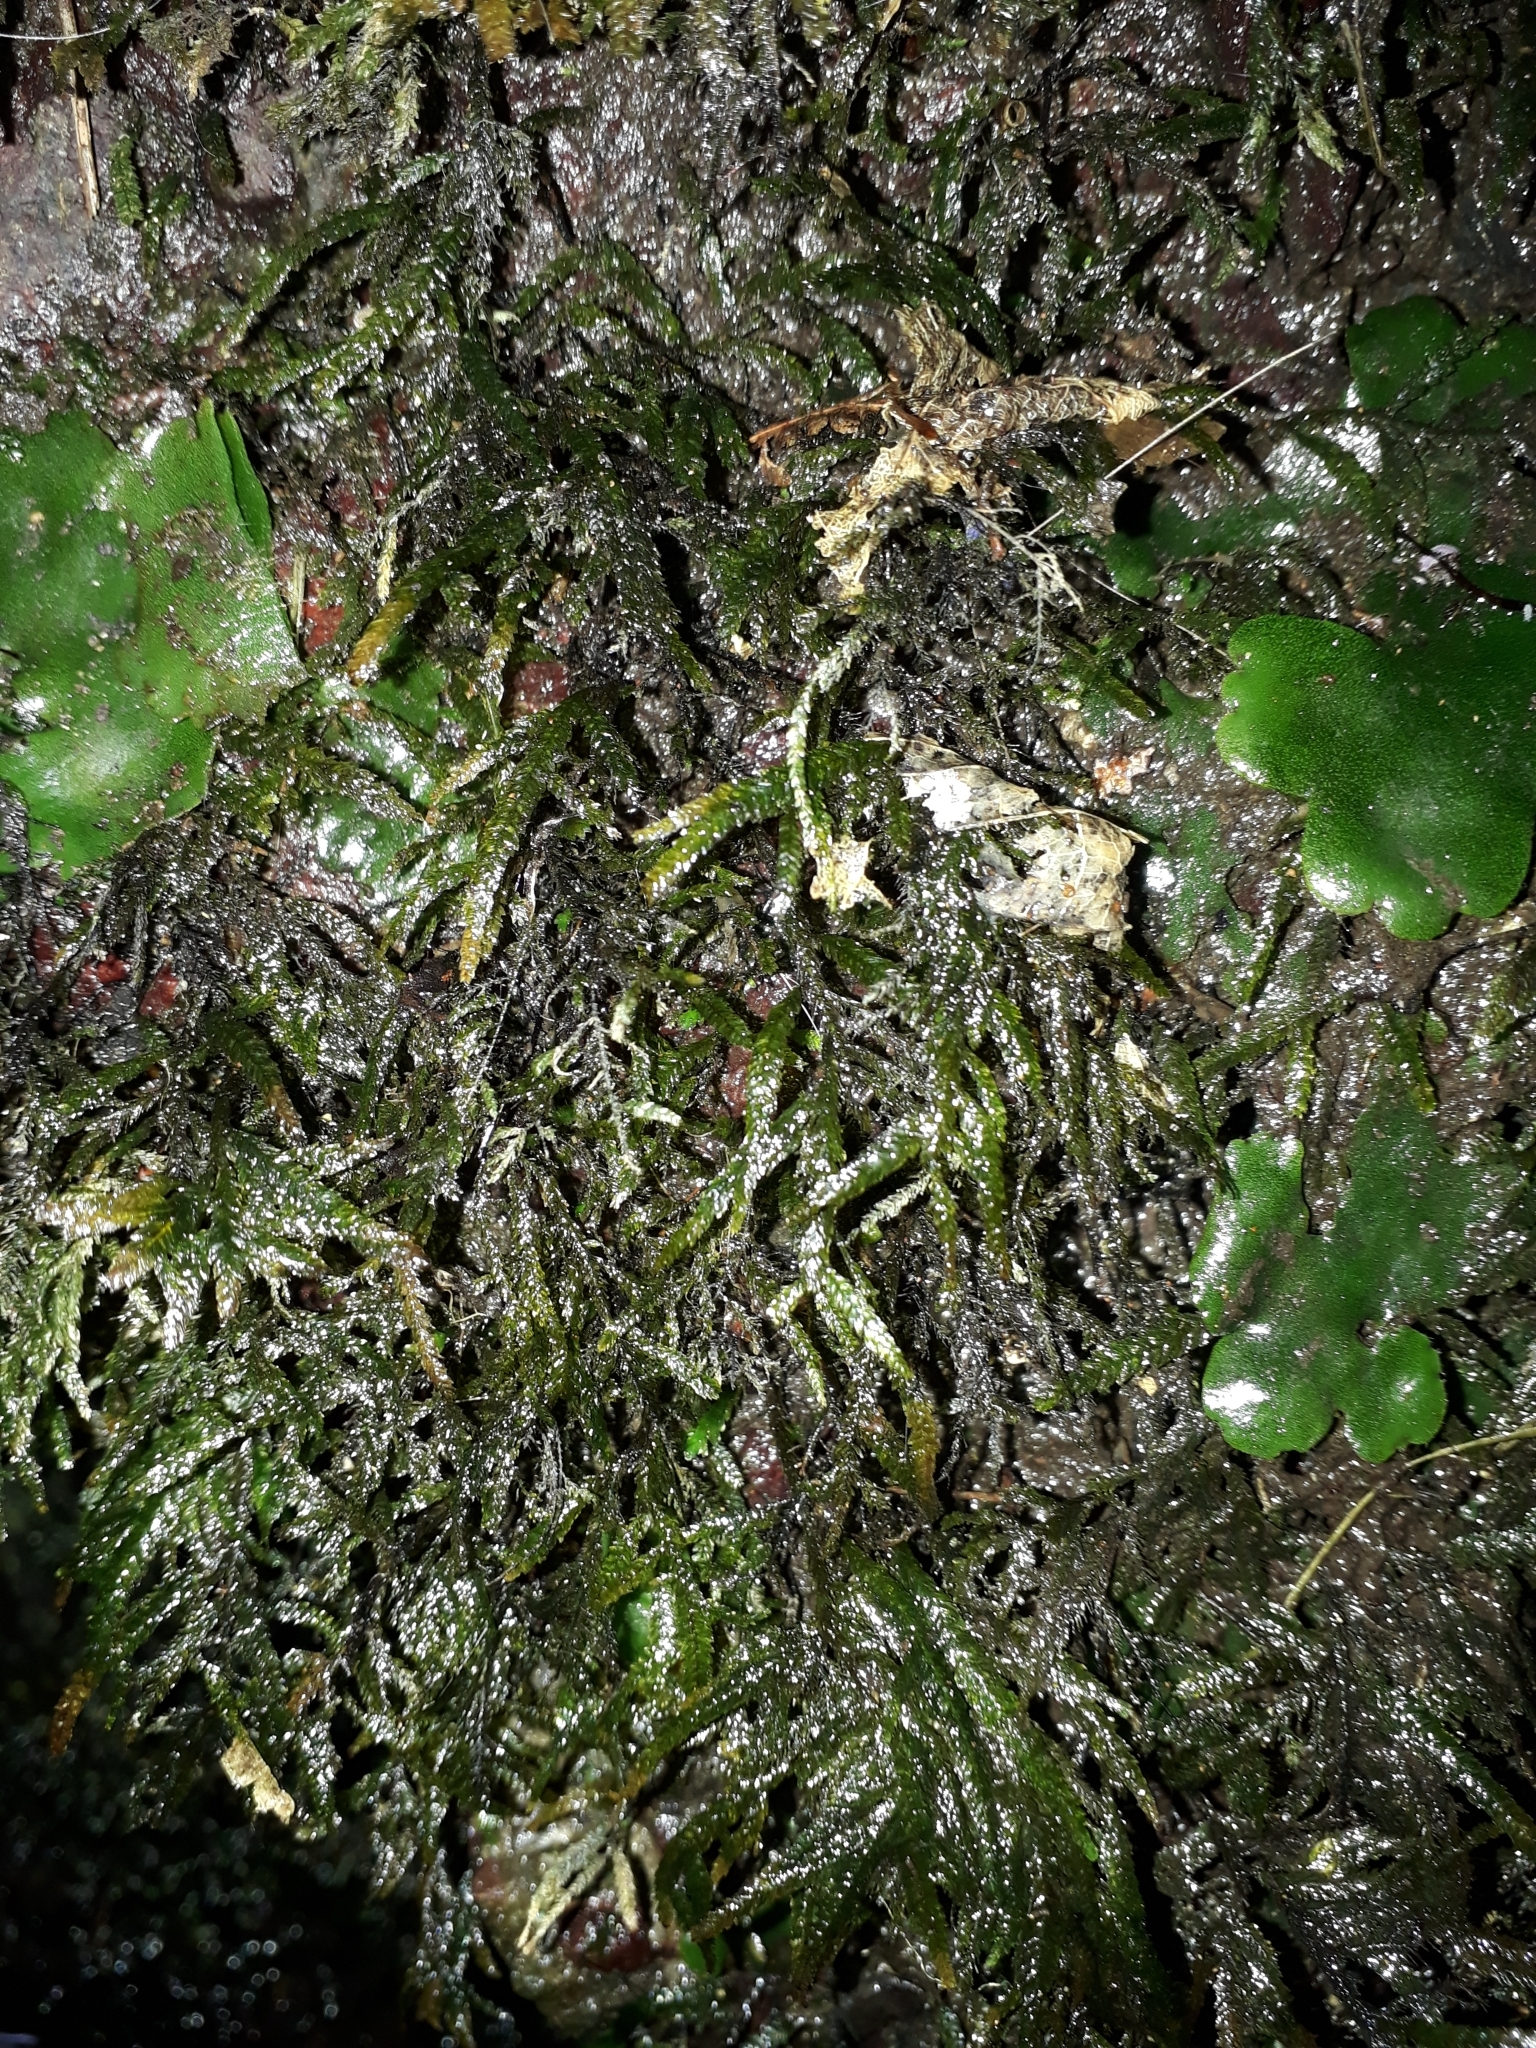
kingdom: Plantae
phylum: Bryophyta
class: Bryopsida
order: Hypnales
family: Neckeraceae
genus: Austrothamnium
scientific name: Austrothamnium pandum
